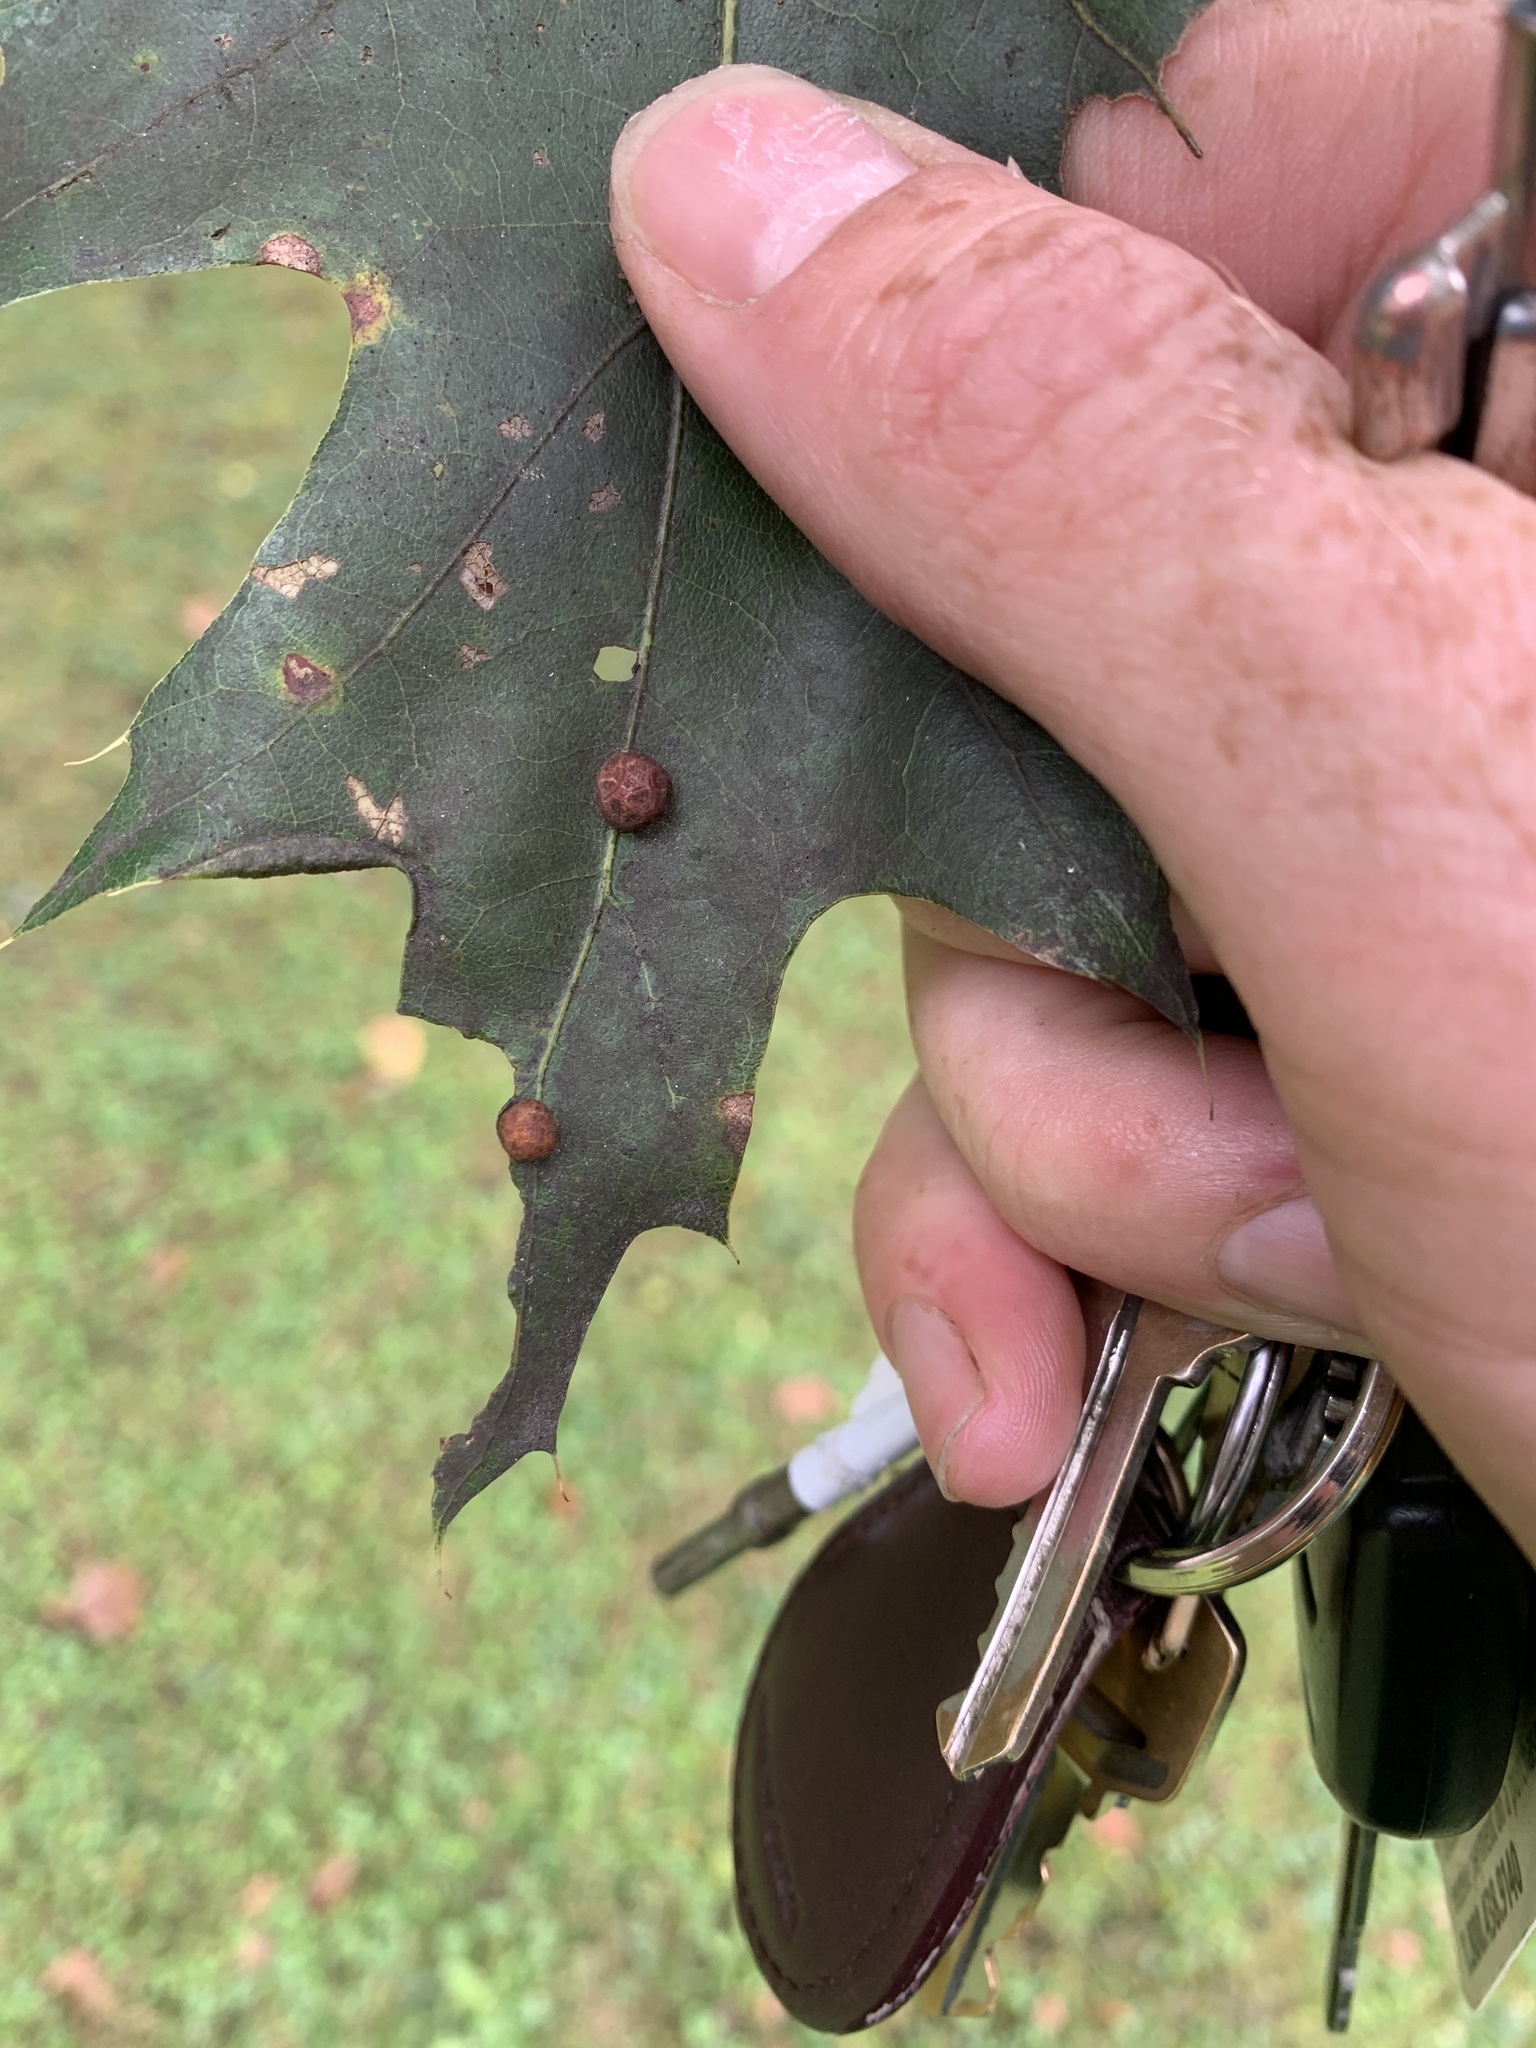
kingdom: Animalia
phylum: Arthropoda
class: Insecta
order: Diptera
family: Cecidomyiidae
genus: Polystepha
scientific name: Polystepha pilulae
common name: Oak leaf gall midge
